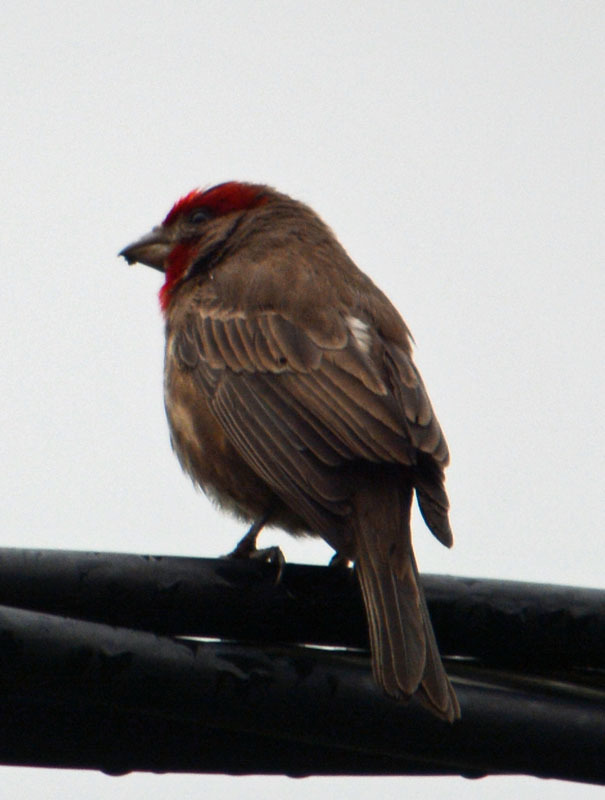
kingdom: Animalia
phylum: Chordata
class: Aves
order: Passeriformes
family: Fringillidae
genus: Haemorhous
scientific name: Haemorhous mexicanus
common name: House finch
